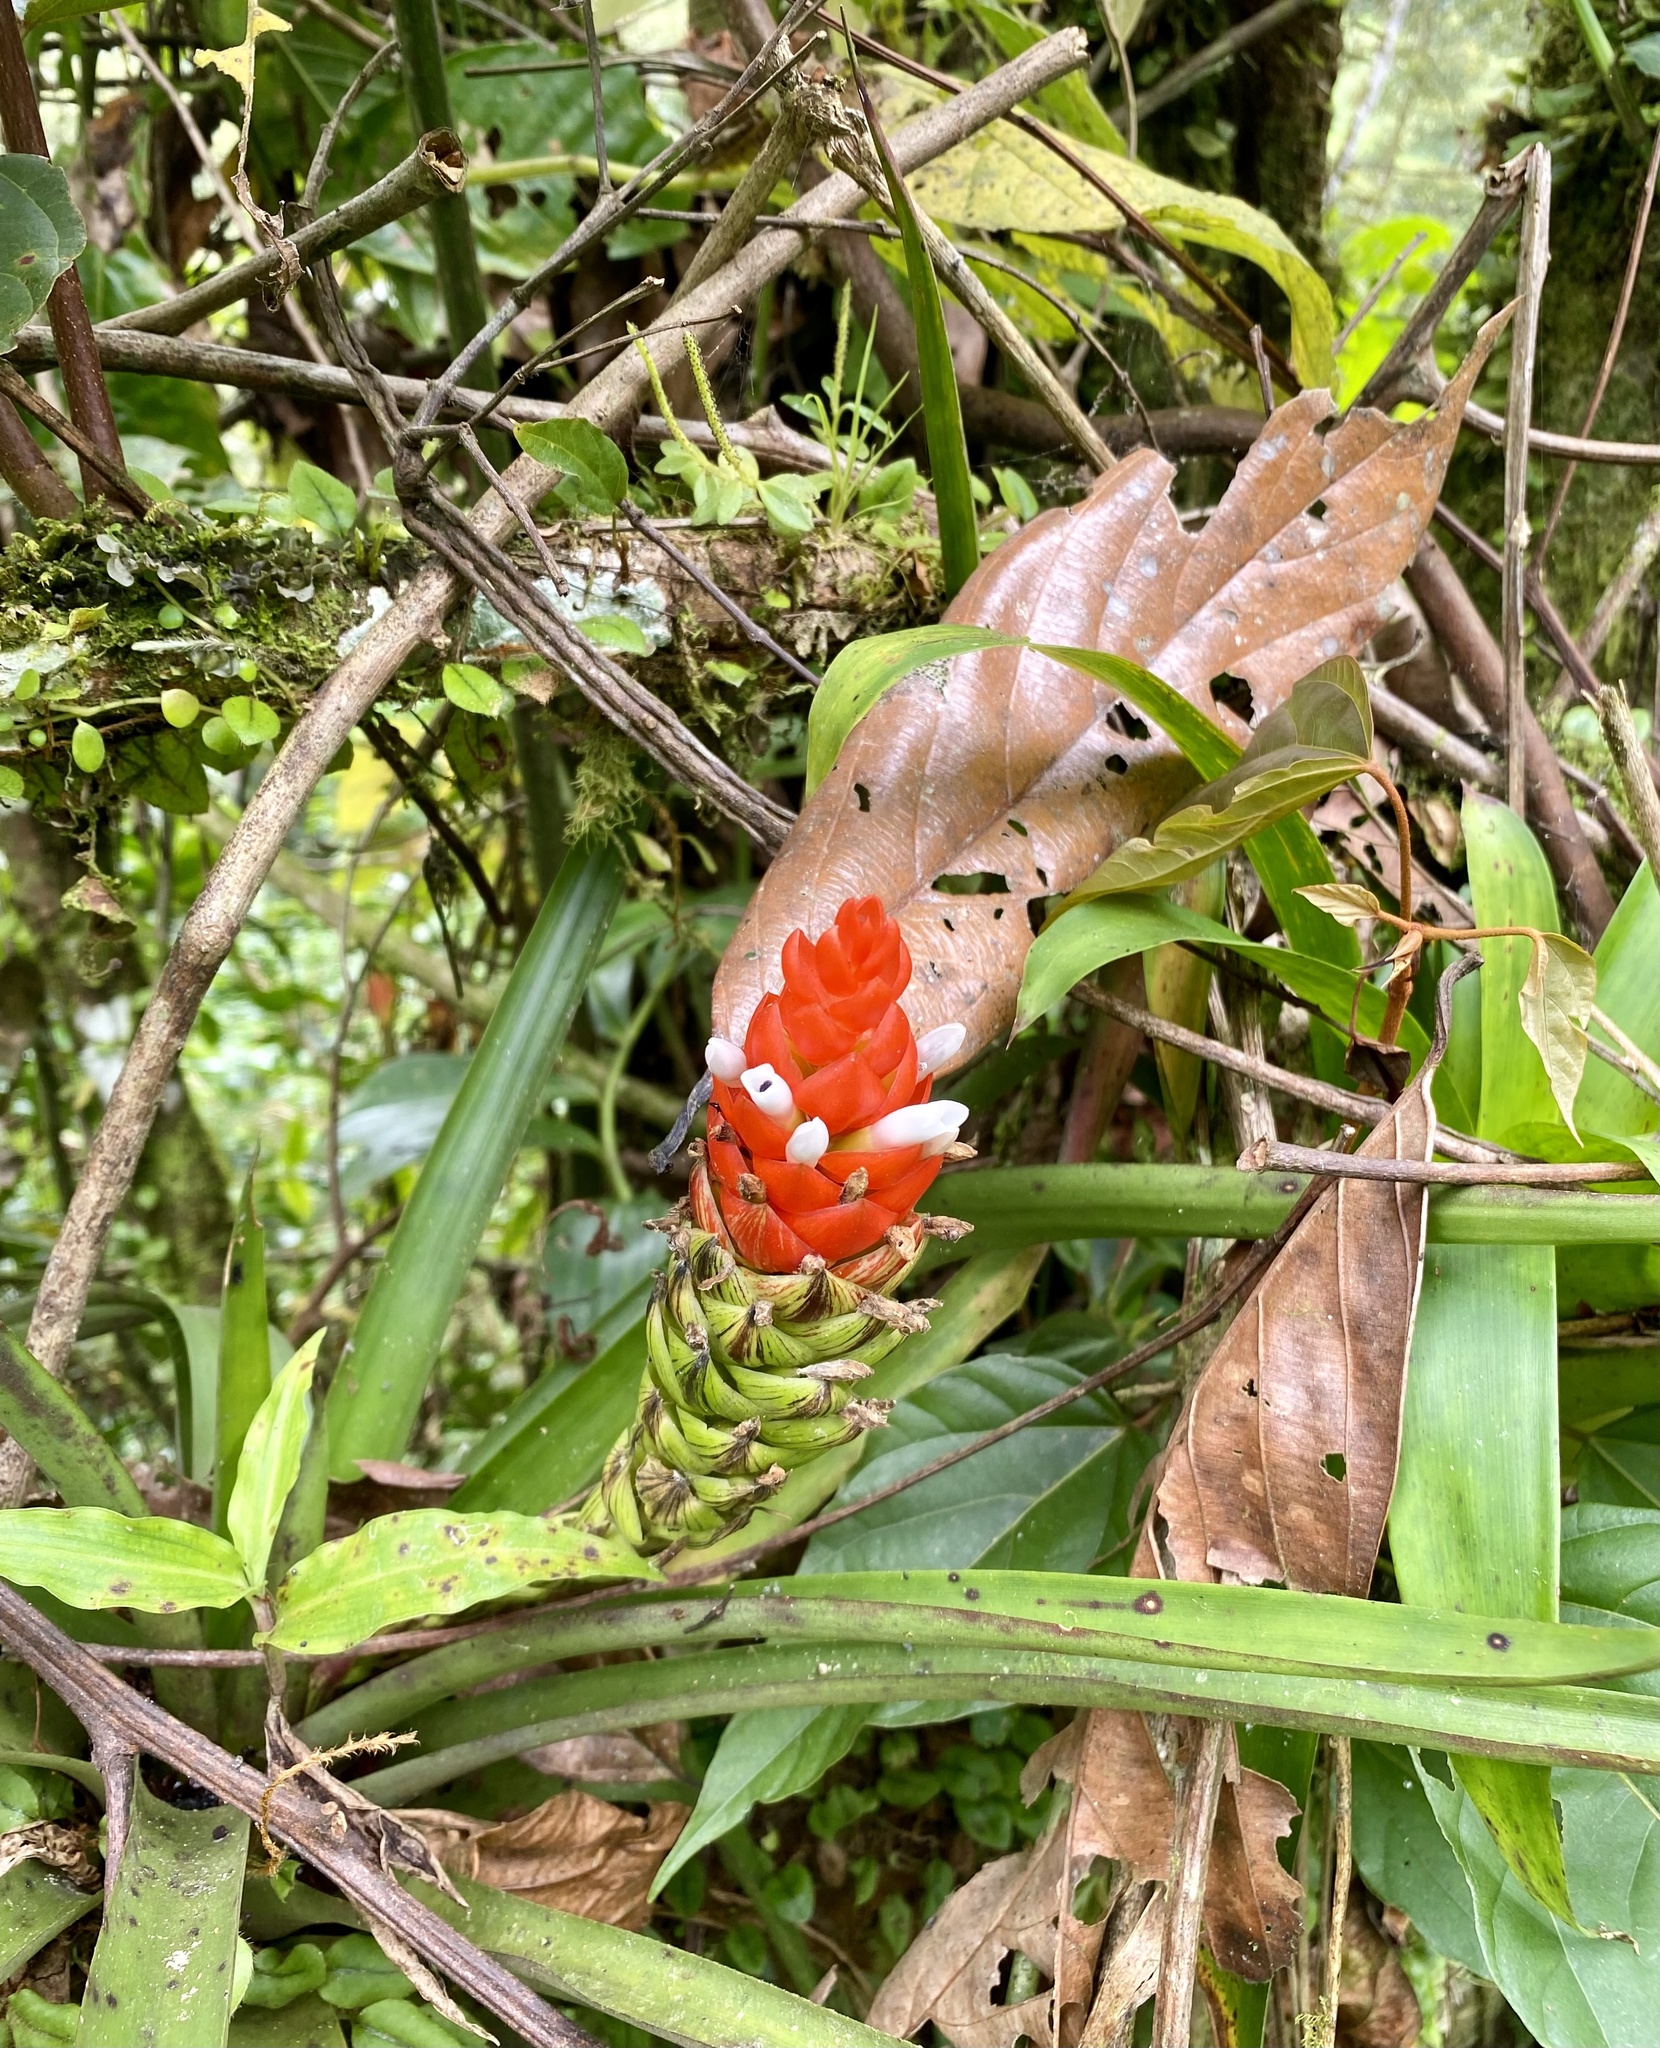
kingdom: Plantae
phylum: Tracheophyta
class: Liliopsida
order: Poales
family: Bromeliaceae
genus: Guzmania
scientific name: Guzmania monostachia
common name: West indian tufted airplant
